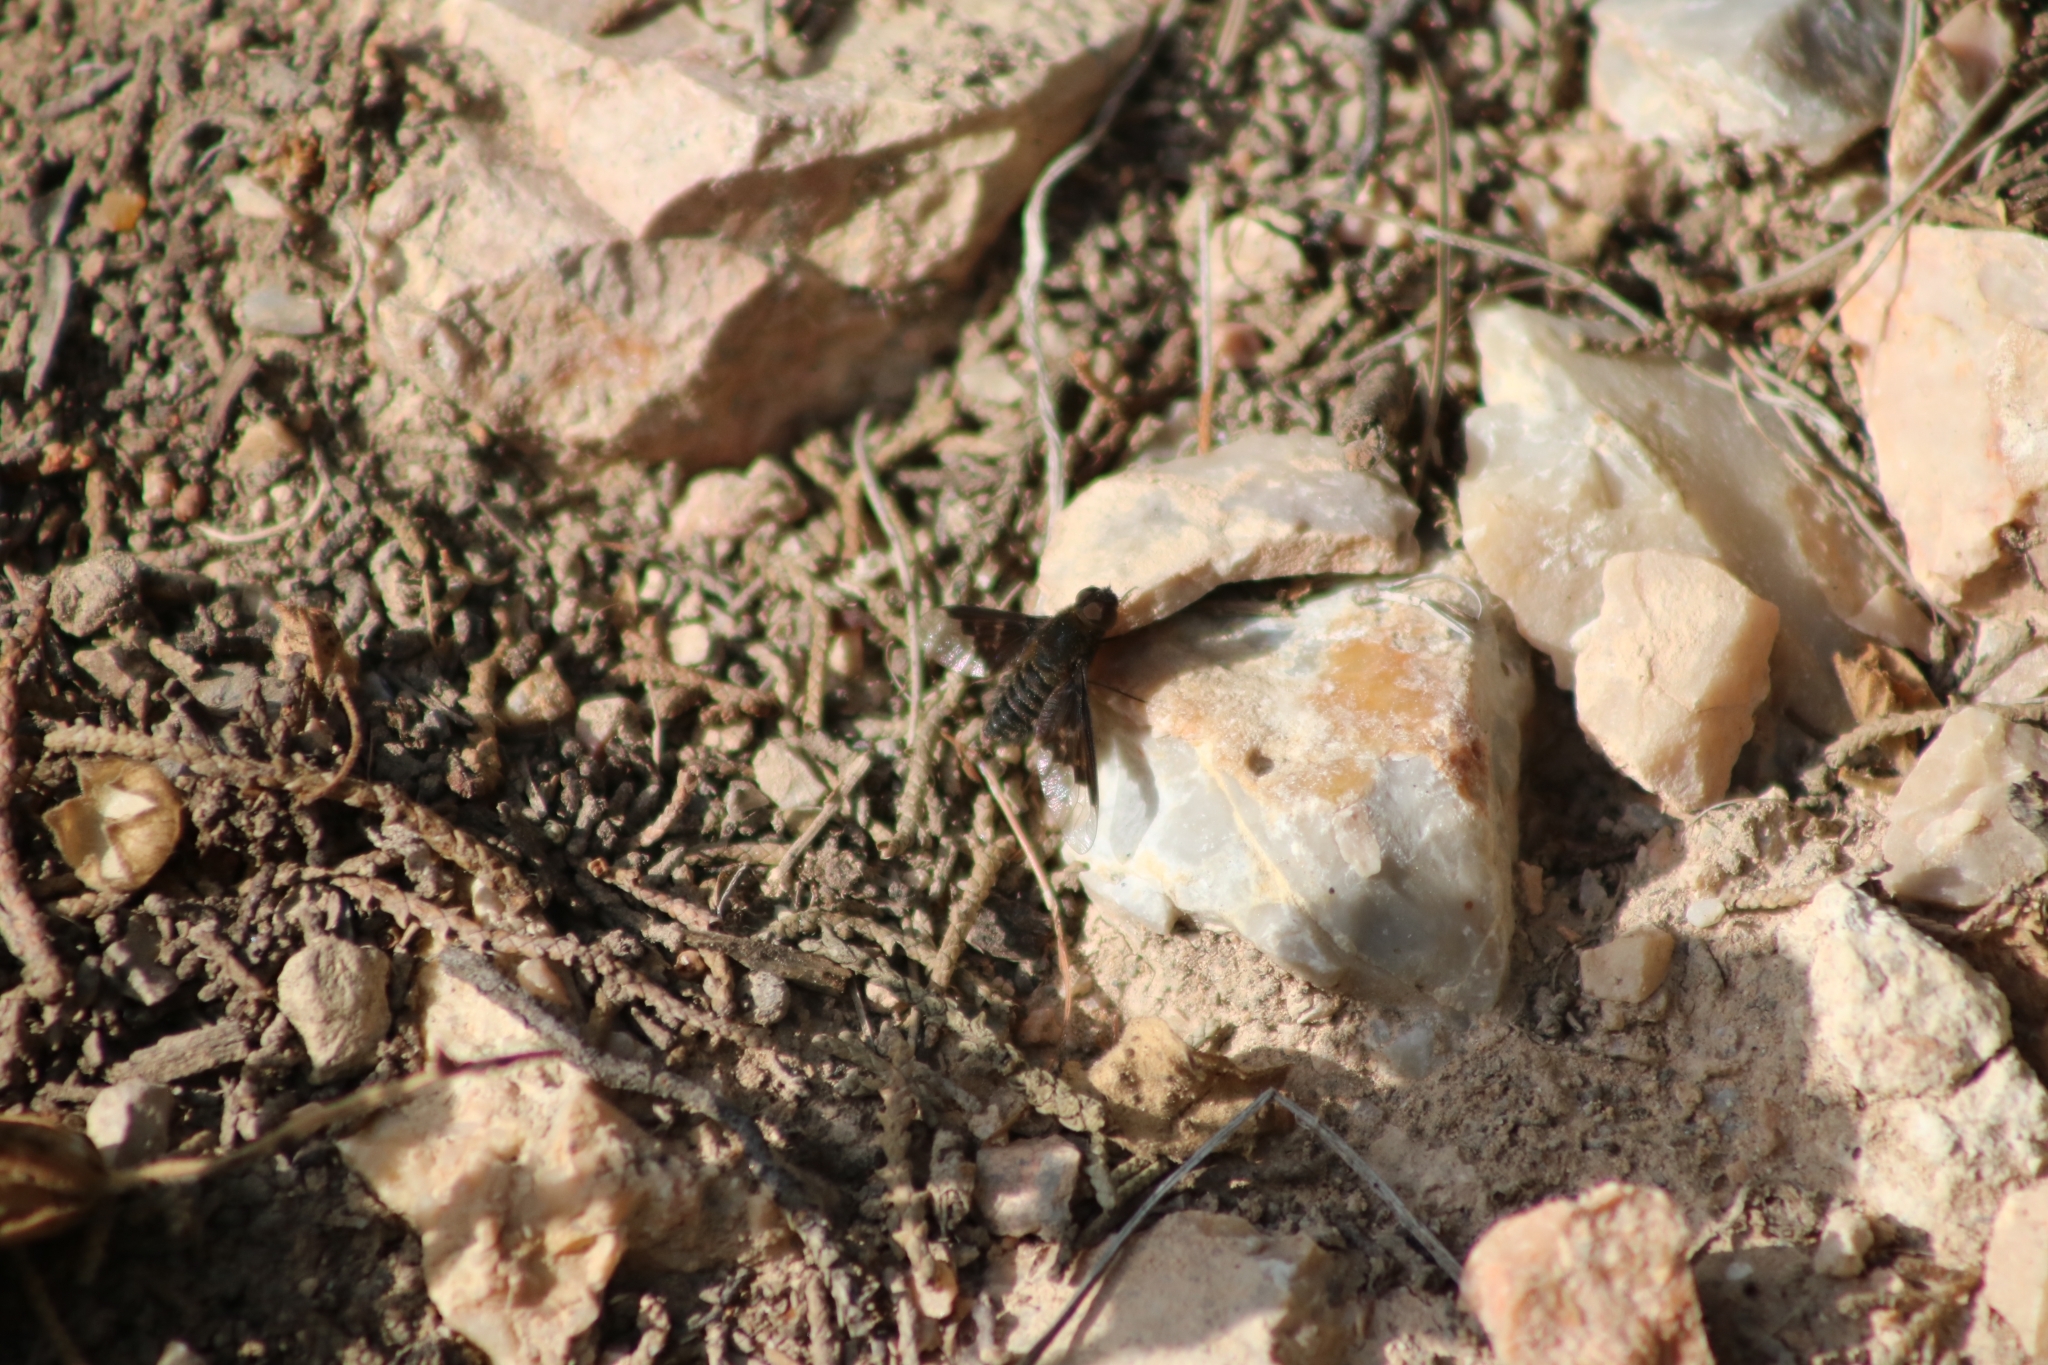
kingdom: Animalia
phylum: Arthropoda
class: Insecta
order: Diptera
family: Bombyliidae
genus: Hemipenthes
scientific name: Hemipenthes morio
